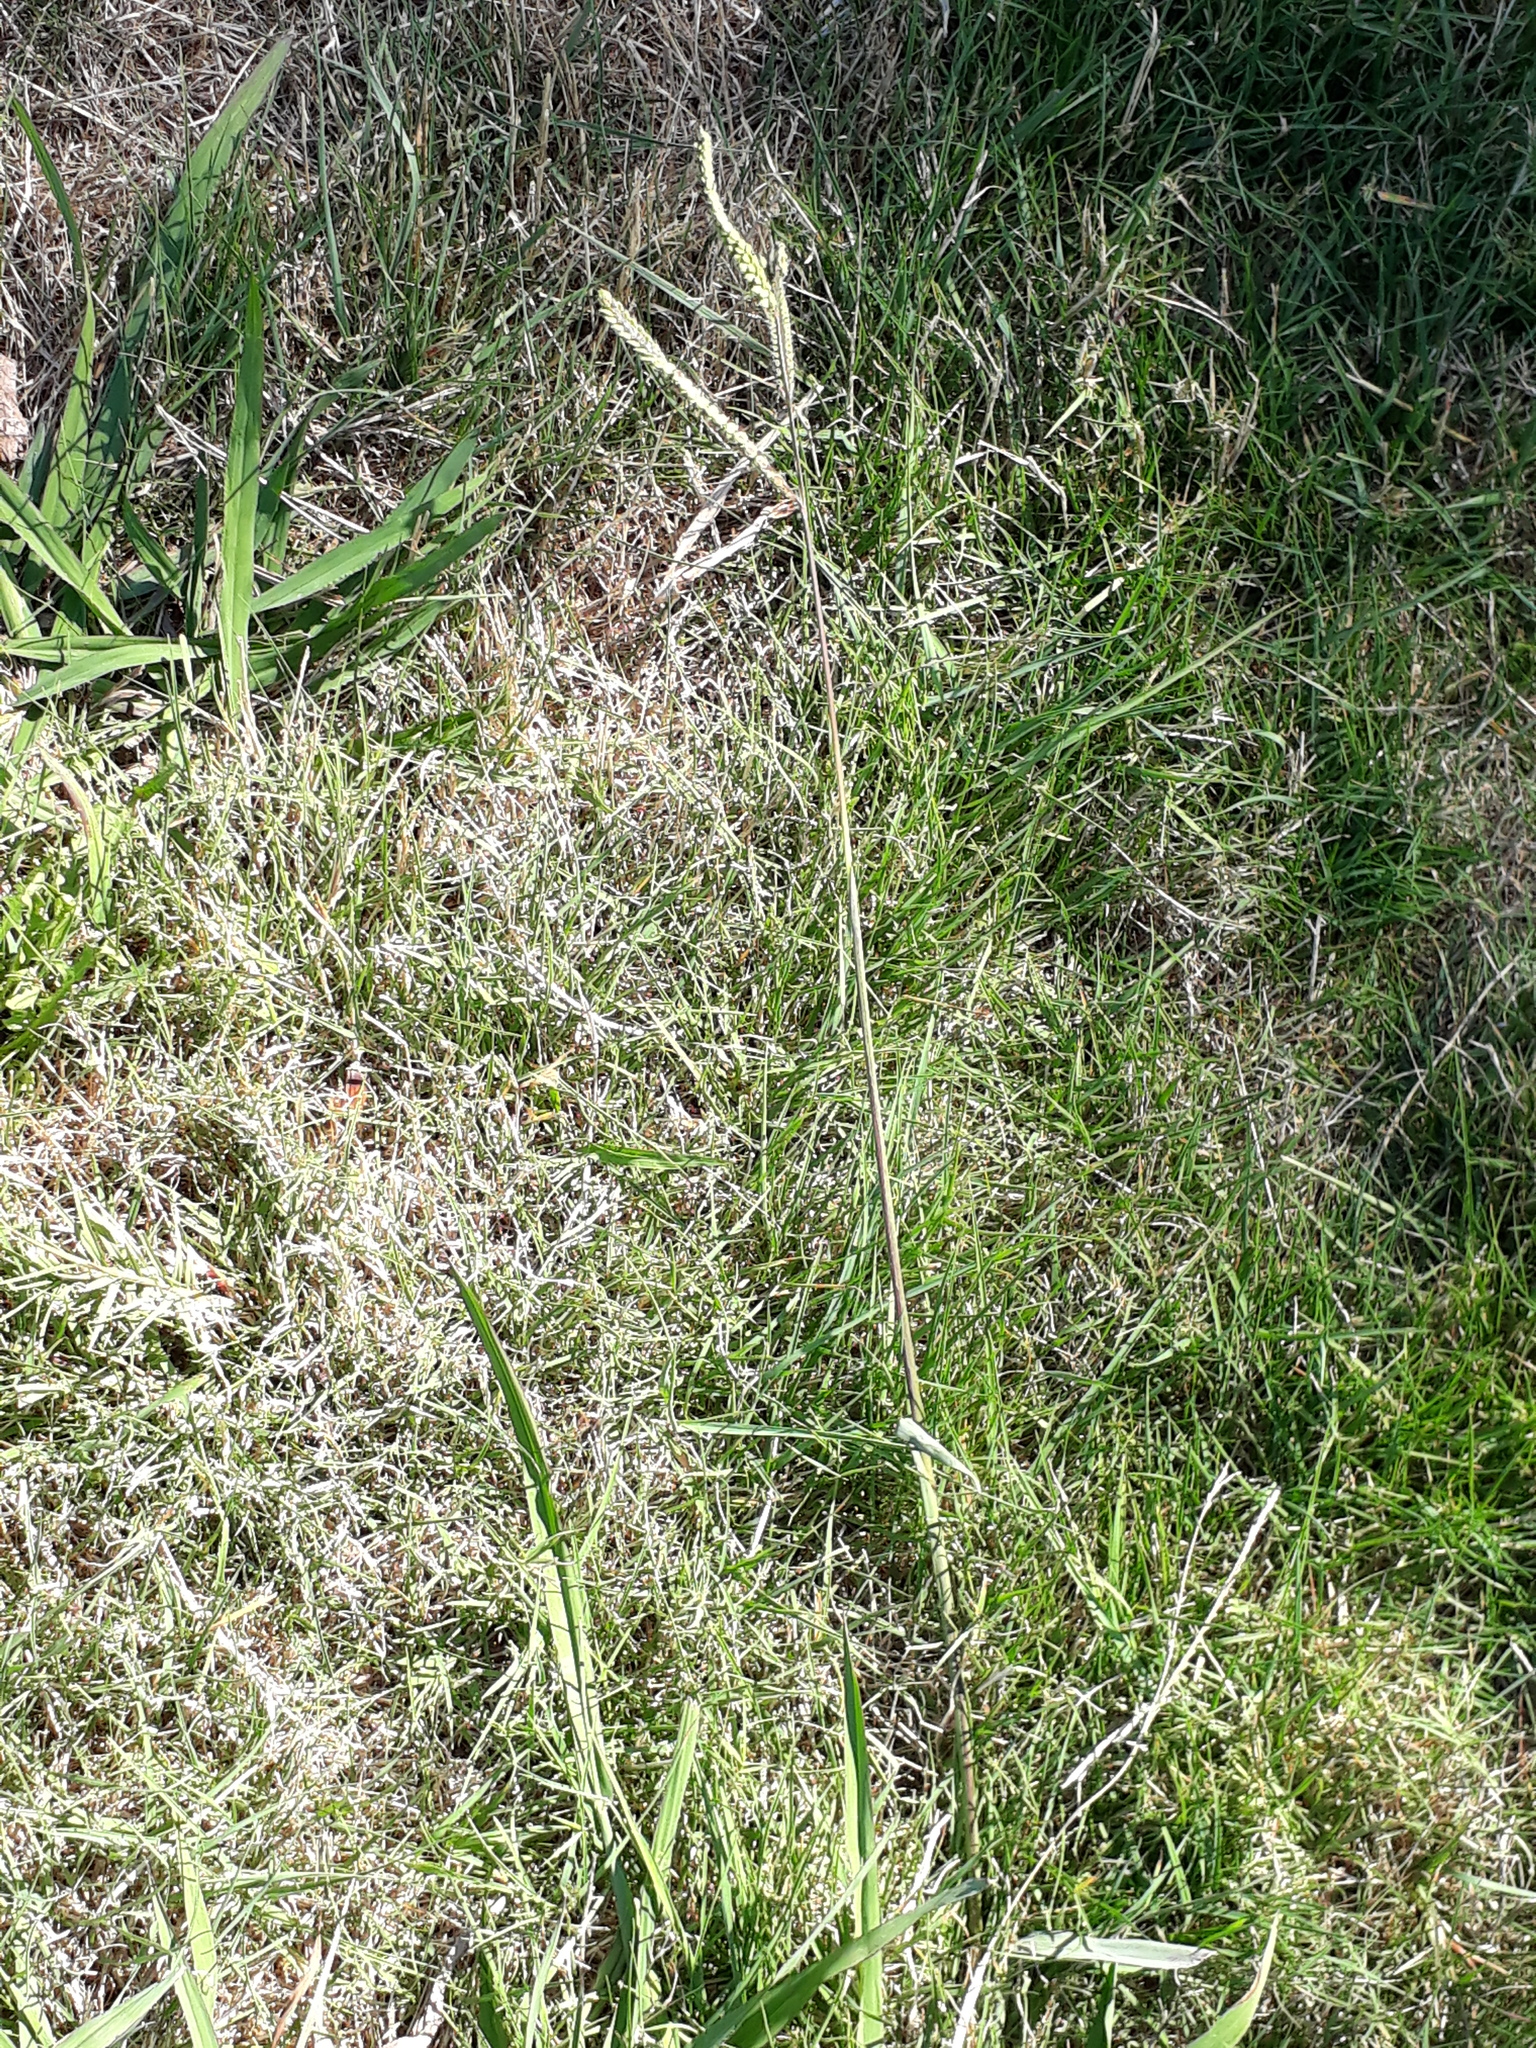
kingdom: Plantae
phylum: Tracheophyta
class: Liliopsida
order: Poales
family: Poaceae
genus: Paspalum
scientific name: Paspalum dilatatum
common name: Dallisgrass
